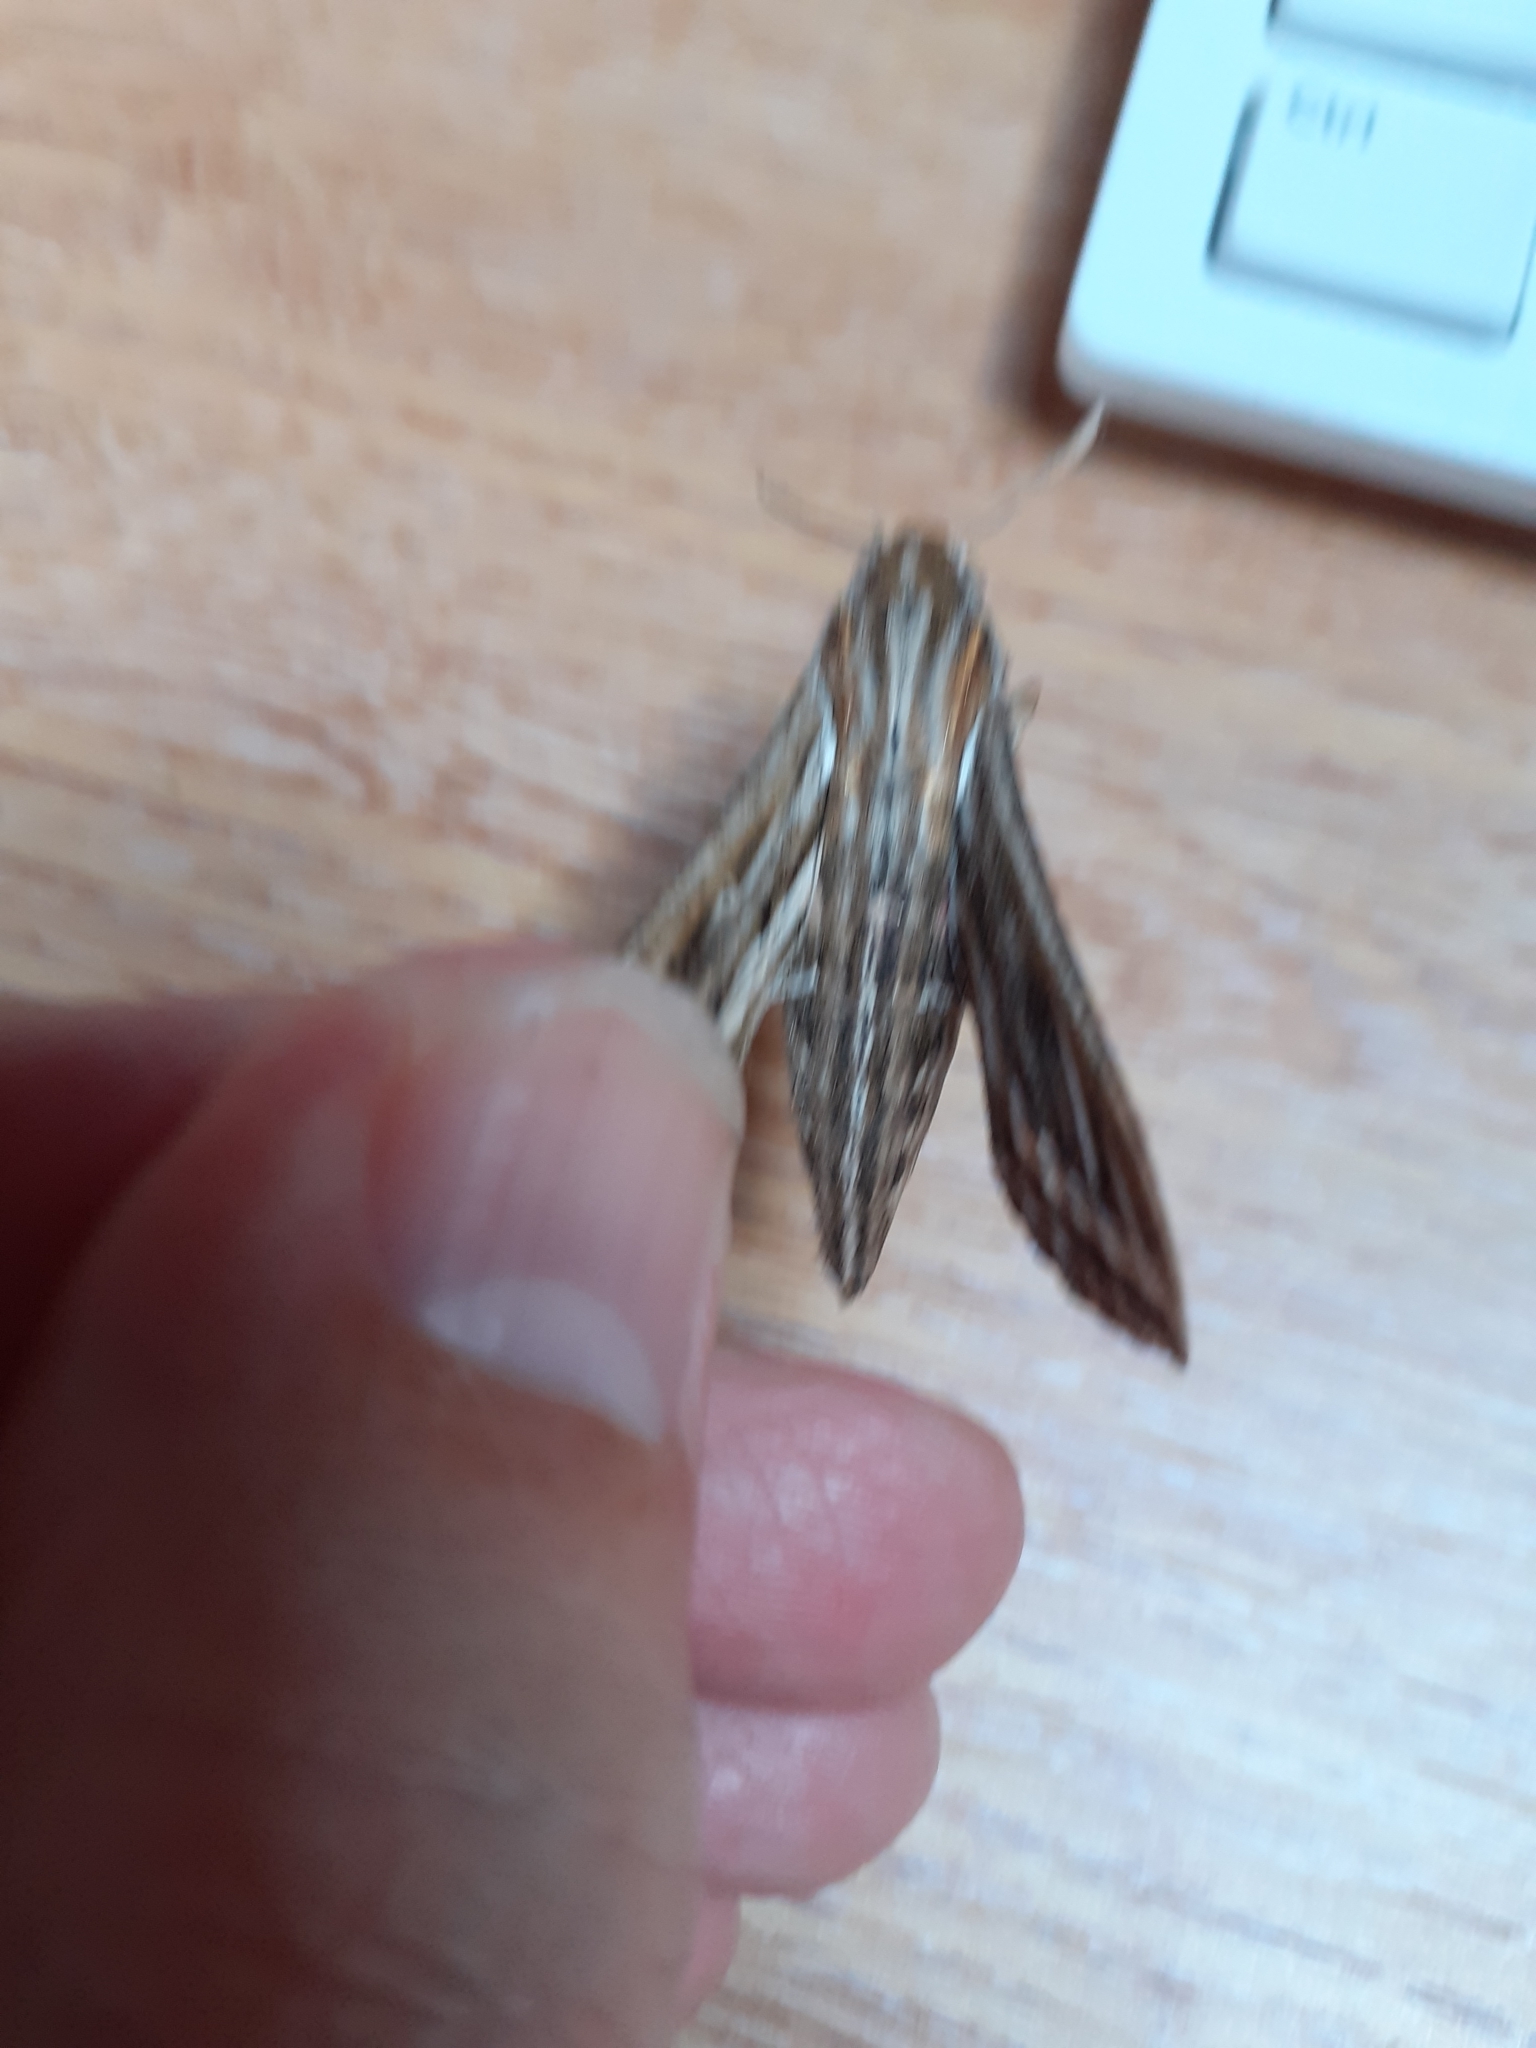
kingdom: Animalia
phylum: Arthropoda
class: Insecta
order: Lepidoptera
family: Sphingidae
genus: Hippotion
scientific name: Hippotion celerio
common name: Silver-striped hawk-moth
